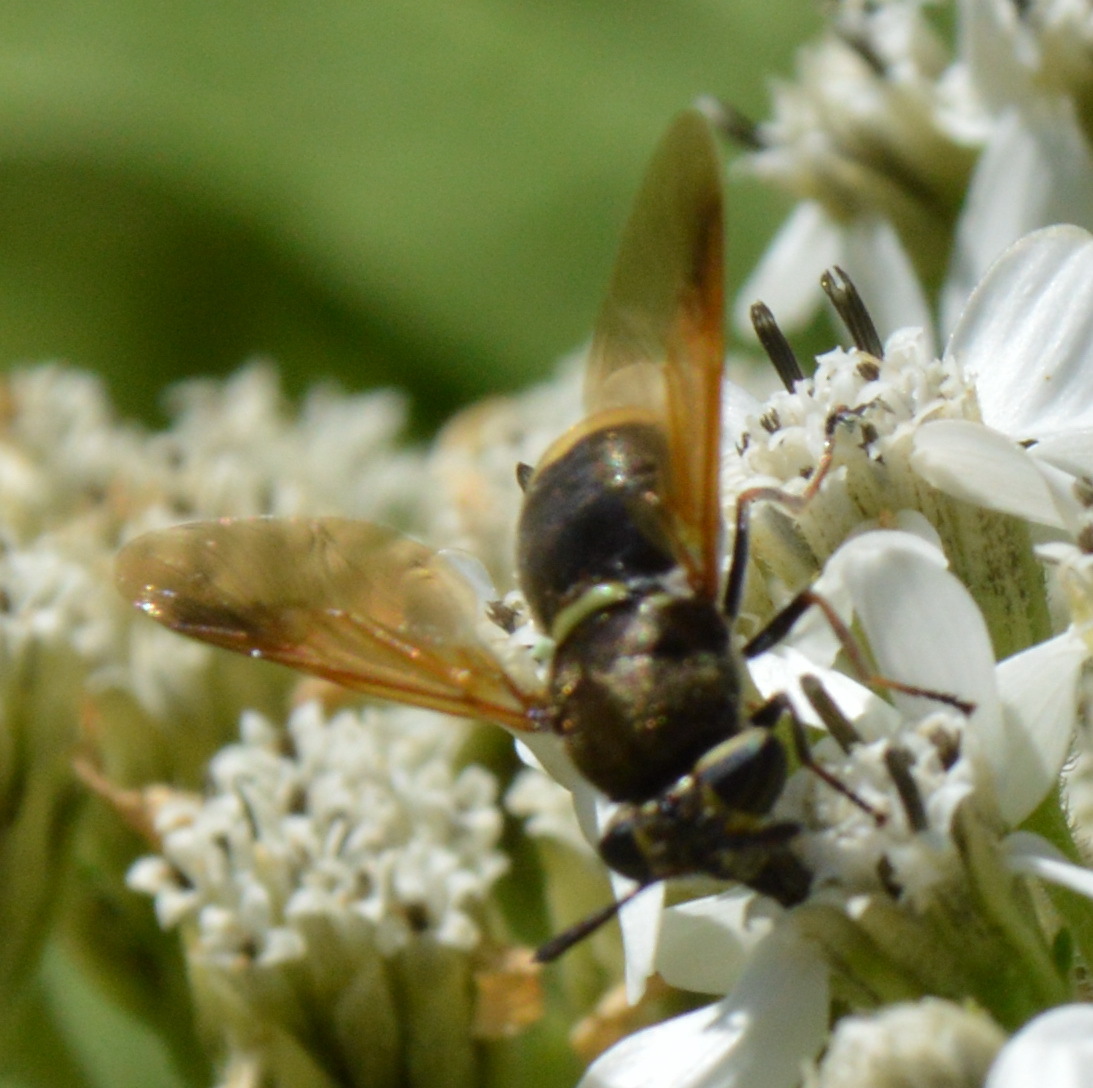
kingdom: Animalia
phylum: Arthropoda
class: Insecta
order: Diptera
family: Stratiomyidae
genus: Hoplitimyia
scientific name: Hoplitimyia mutabilis
